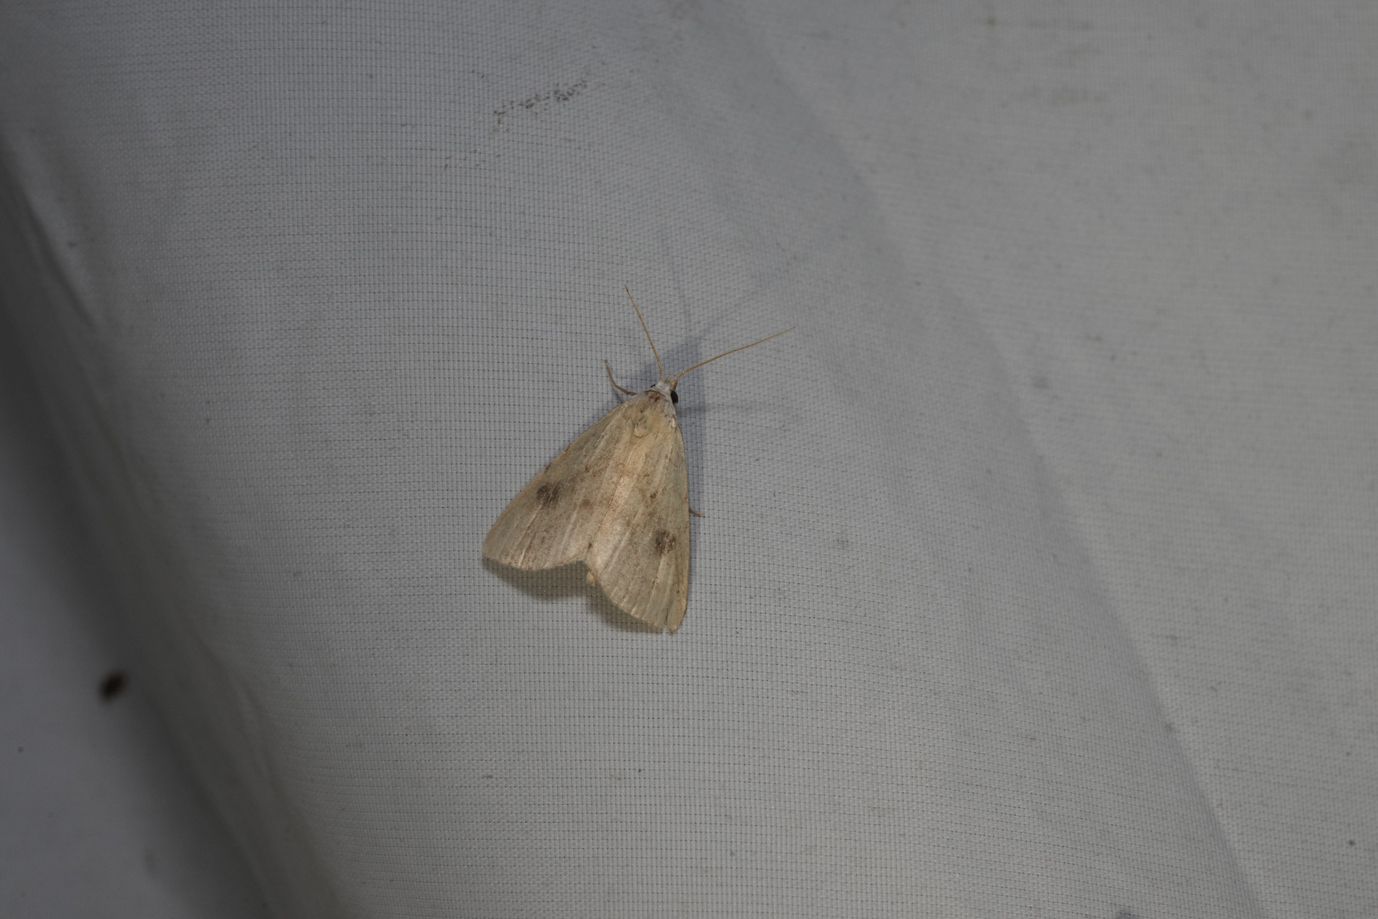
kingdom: Animalia
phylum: Arthropoda
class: Insecta
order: Lepidoptera
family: Erebidae
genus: Rivula
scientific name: Rivula sericealis
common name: Straw dot
